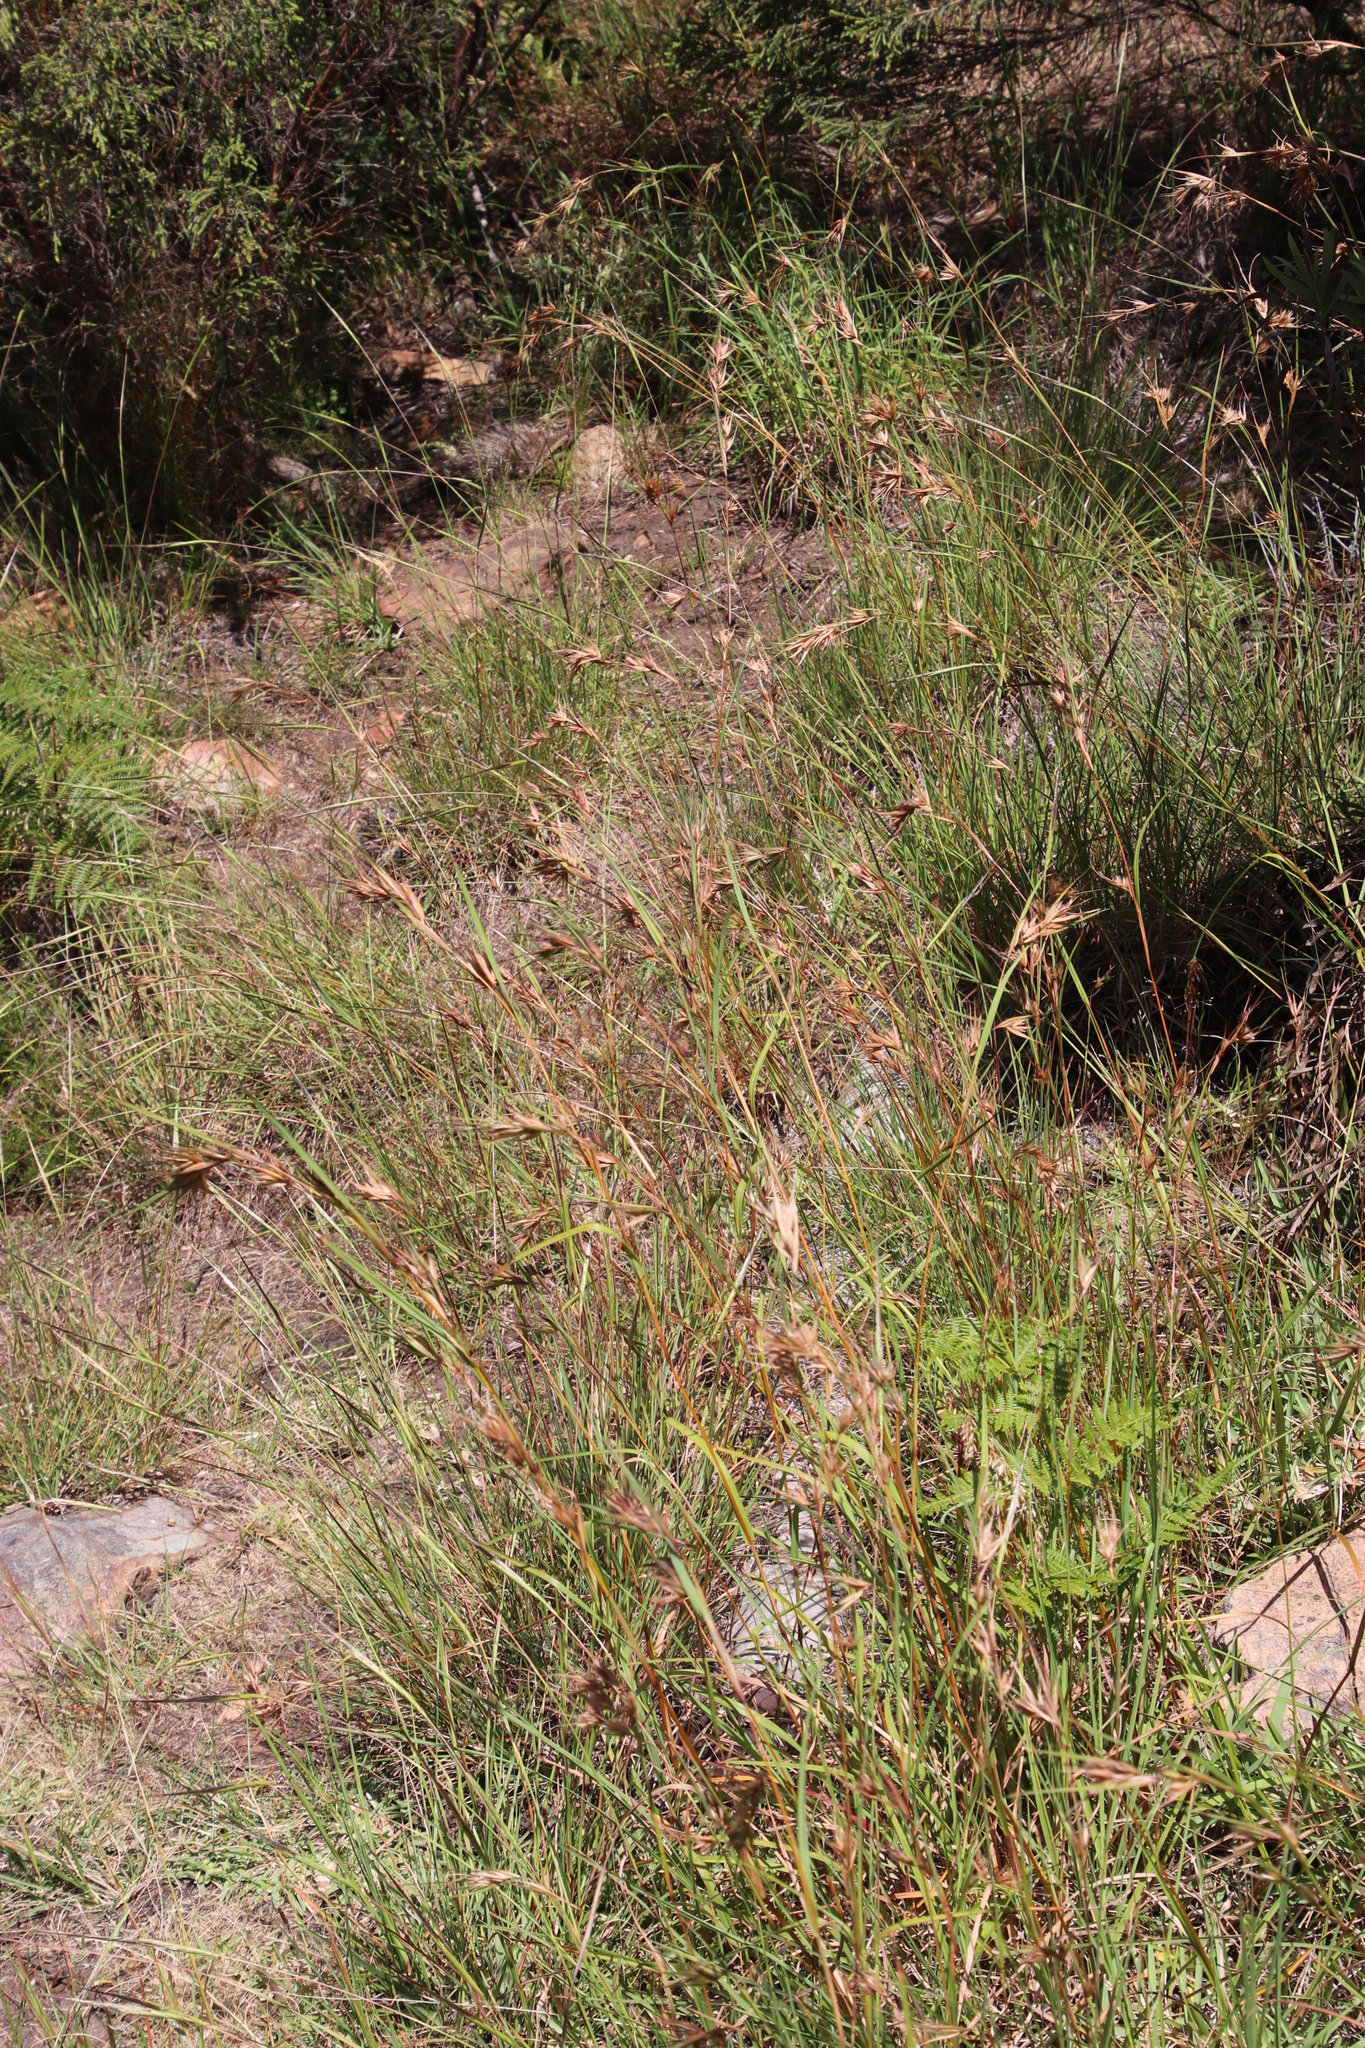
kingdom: Plantae
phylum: Tracheophyta
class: Liliopsida
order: Poales
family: Poaceae
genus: Themeda
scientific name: Themeda triandra
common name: Kangaroo grass
